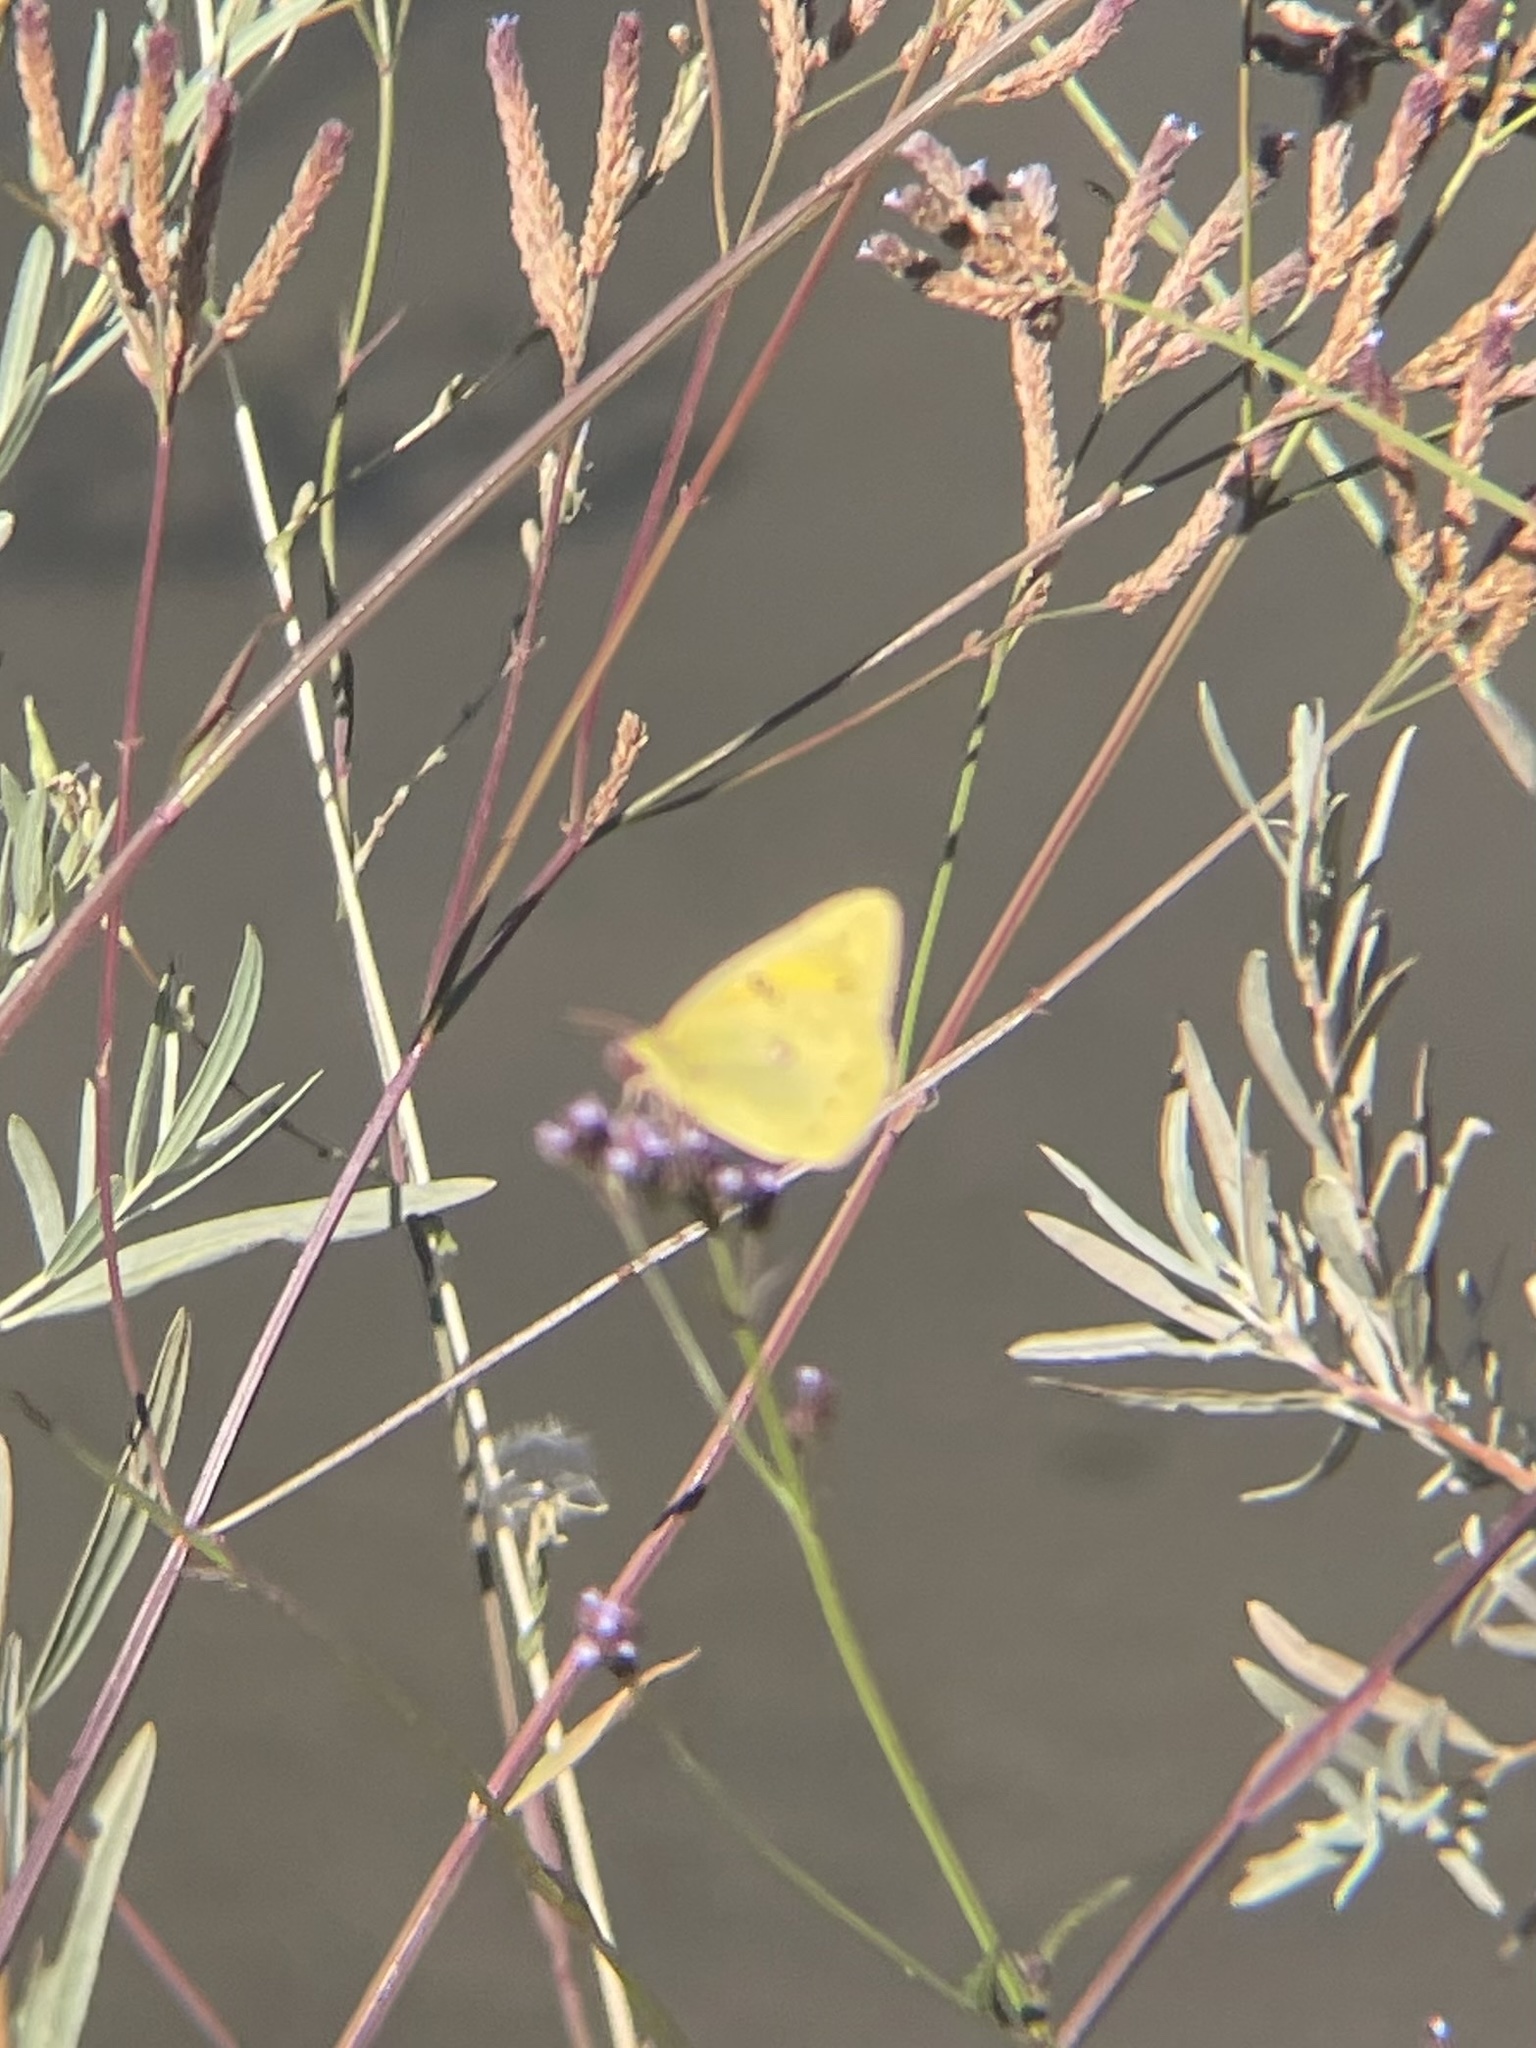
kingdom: Animalia
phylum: Arthropoda
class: Insecta
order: Lepidoptera
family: Pieridae
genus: Colias
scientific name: Colias eurytheme
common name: Alfalfa butterfly
